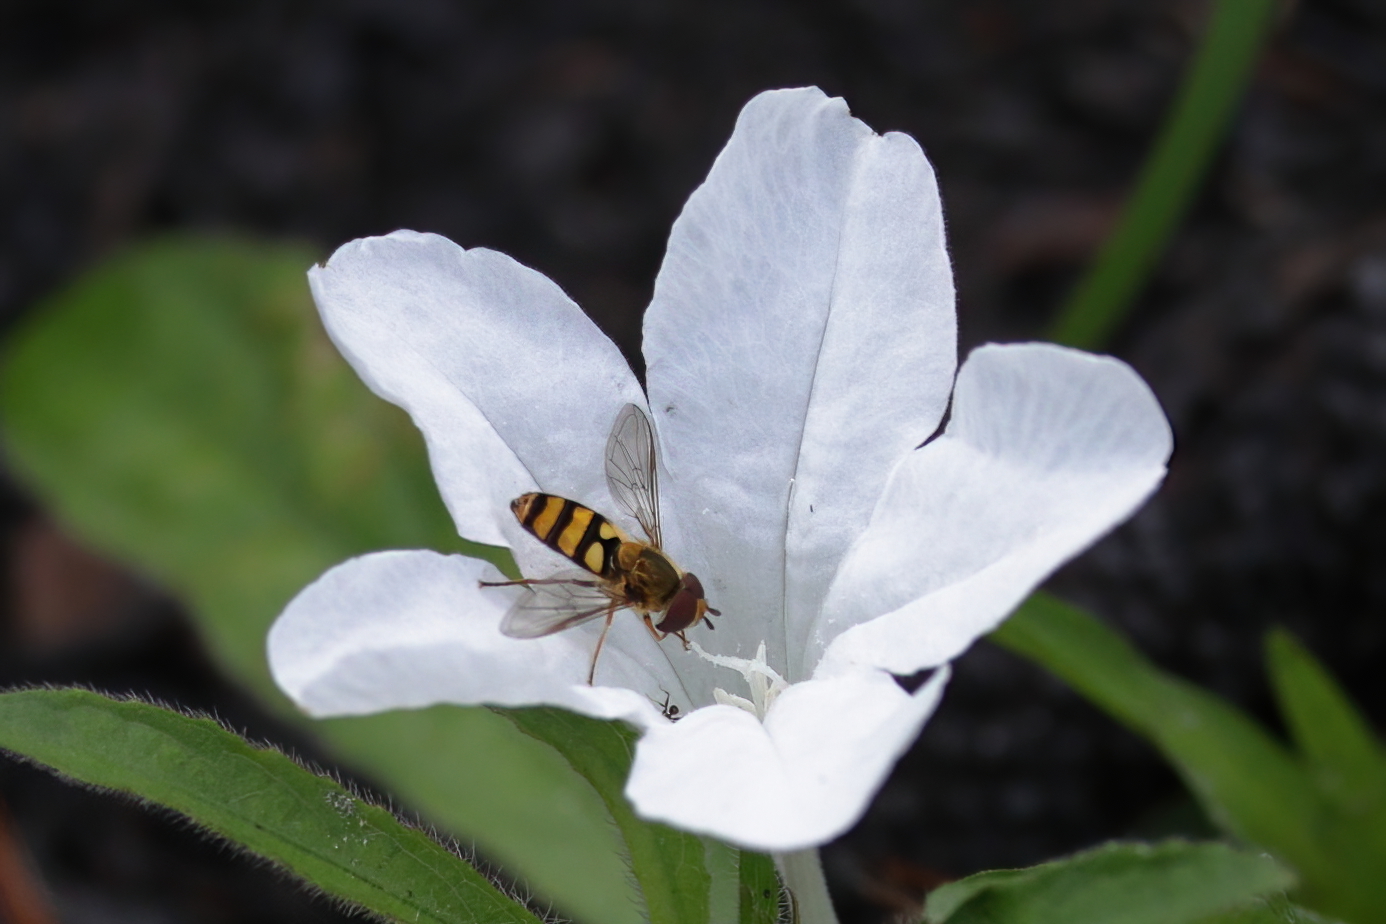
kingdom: Animalia
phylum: Arthropoda
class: Insecta
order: Diptera
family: Syrphidae
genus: Eupeodes
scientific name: Eupeodes
